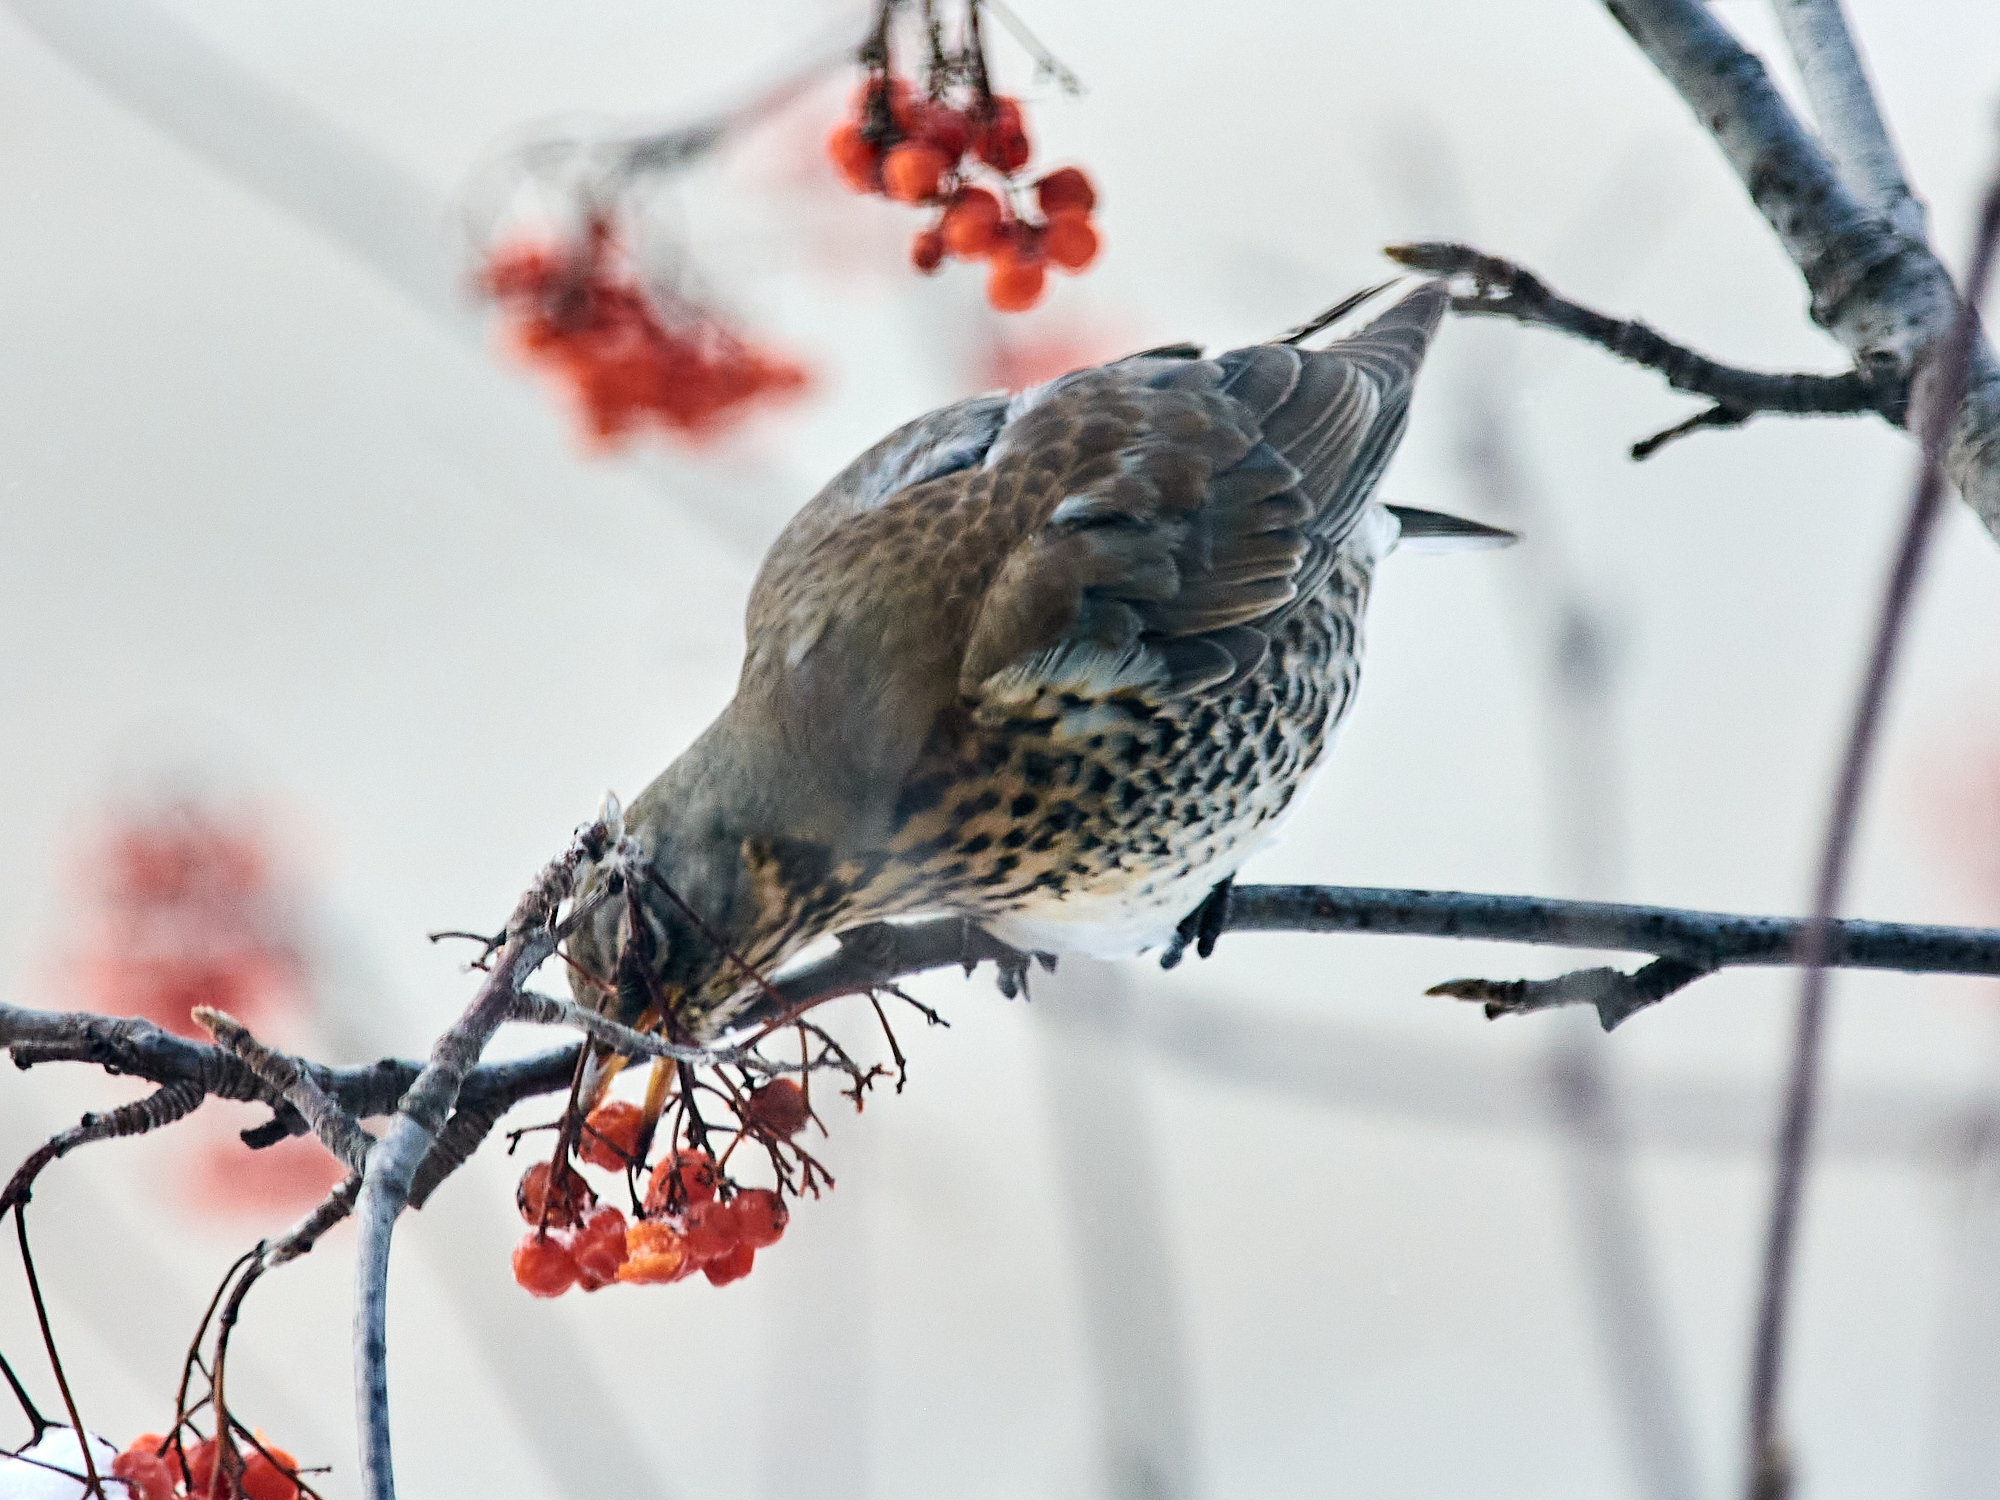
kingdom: Animalia
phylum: Chordata
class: Aves
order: Passeriformes
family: Turdidae
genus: Turdus
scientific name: Turdus pilaris
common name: Fieldfare
